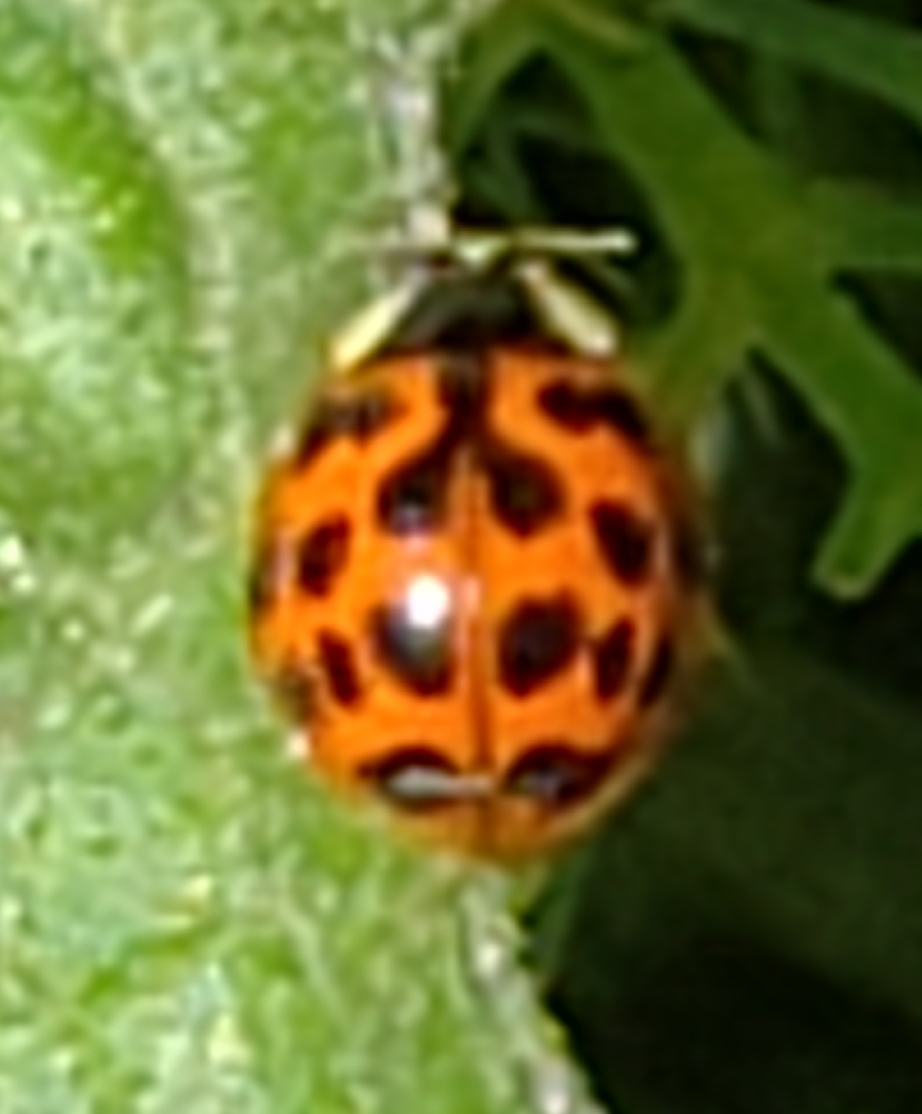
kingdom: Animalia
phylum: Arthropoda
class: Insecta
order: Coleoptera
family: Coccinellidae
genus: Harmonia
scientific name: Harmonia axyridis
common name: Harlequin ladybird
